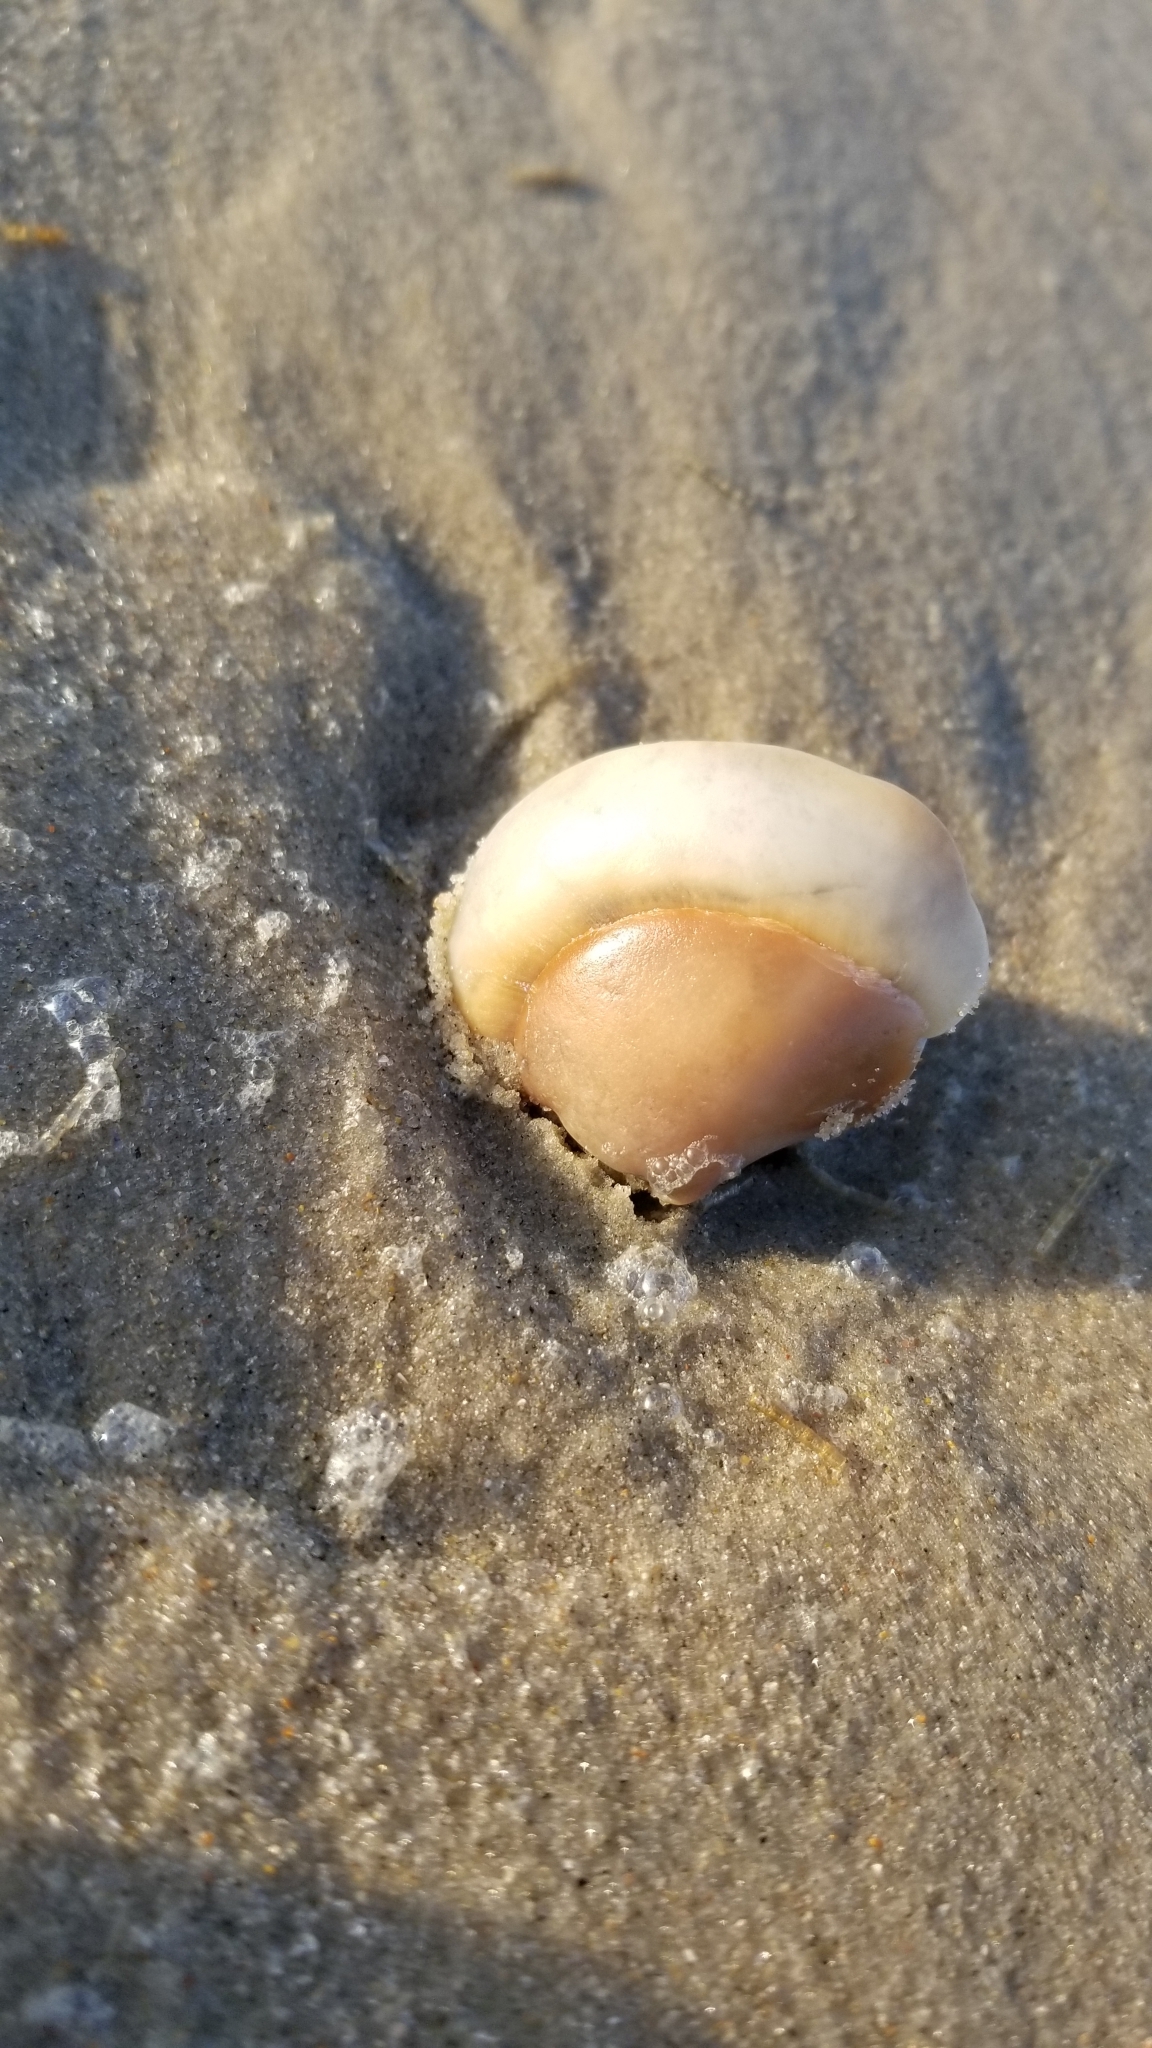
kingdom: Animalia
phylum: Mollusca
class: Gastropoda
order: Littorinimorpha
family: Naticidae
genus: Neverita
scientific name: Neverita duplicata
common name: Lobed moonsnail
